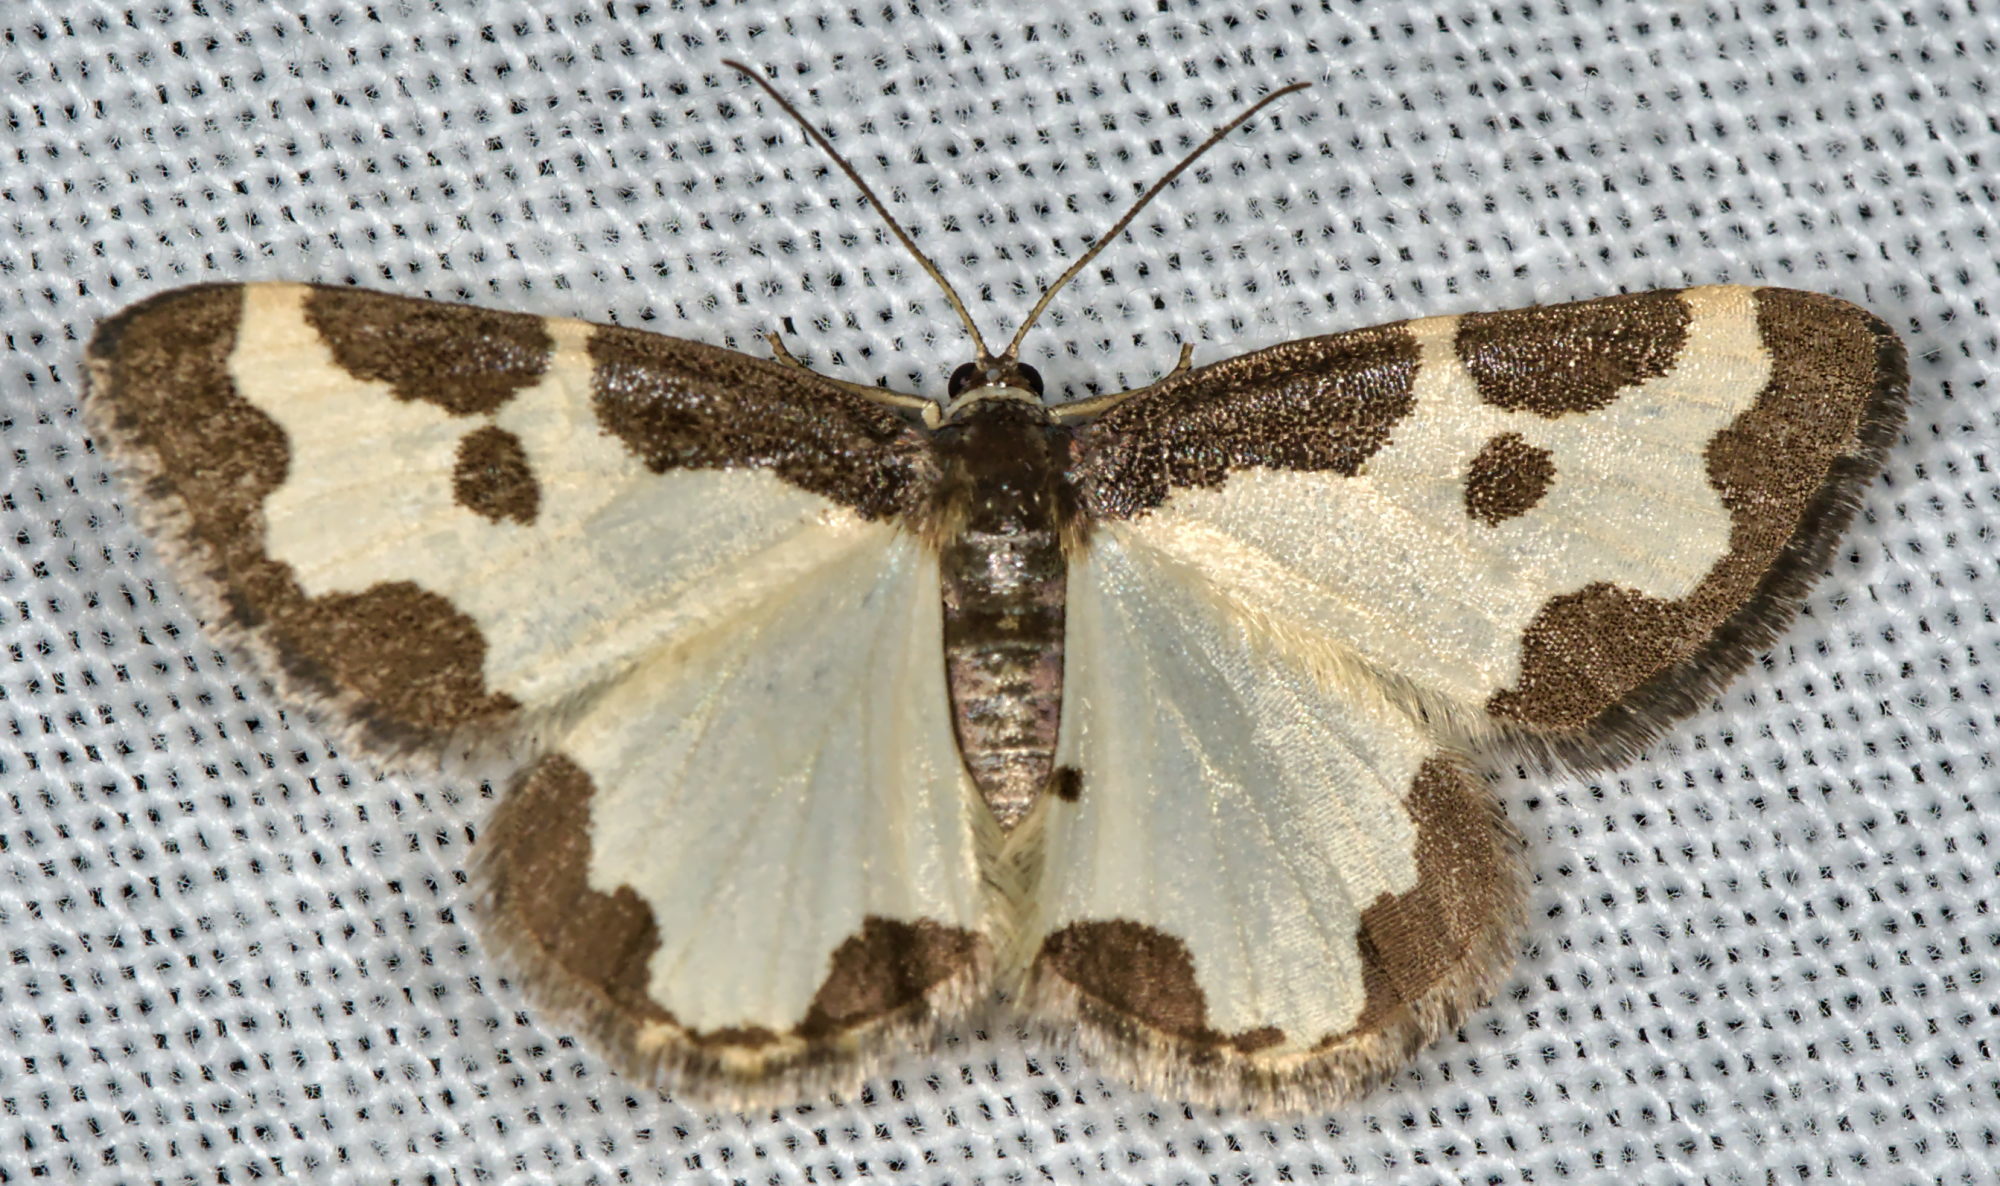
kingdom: Animalia
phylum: Arthropoda
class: Insecta
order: Lepidoptera
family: Geometridae
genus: Lomaspilis
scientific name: Lomaspilis marginata
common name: Clouded border
